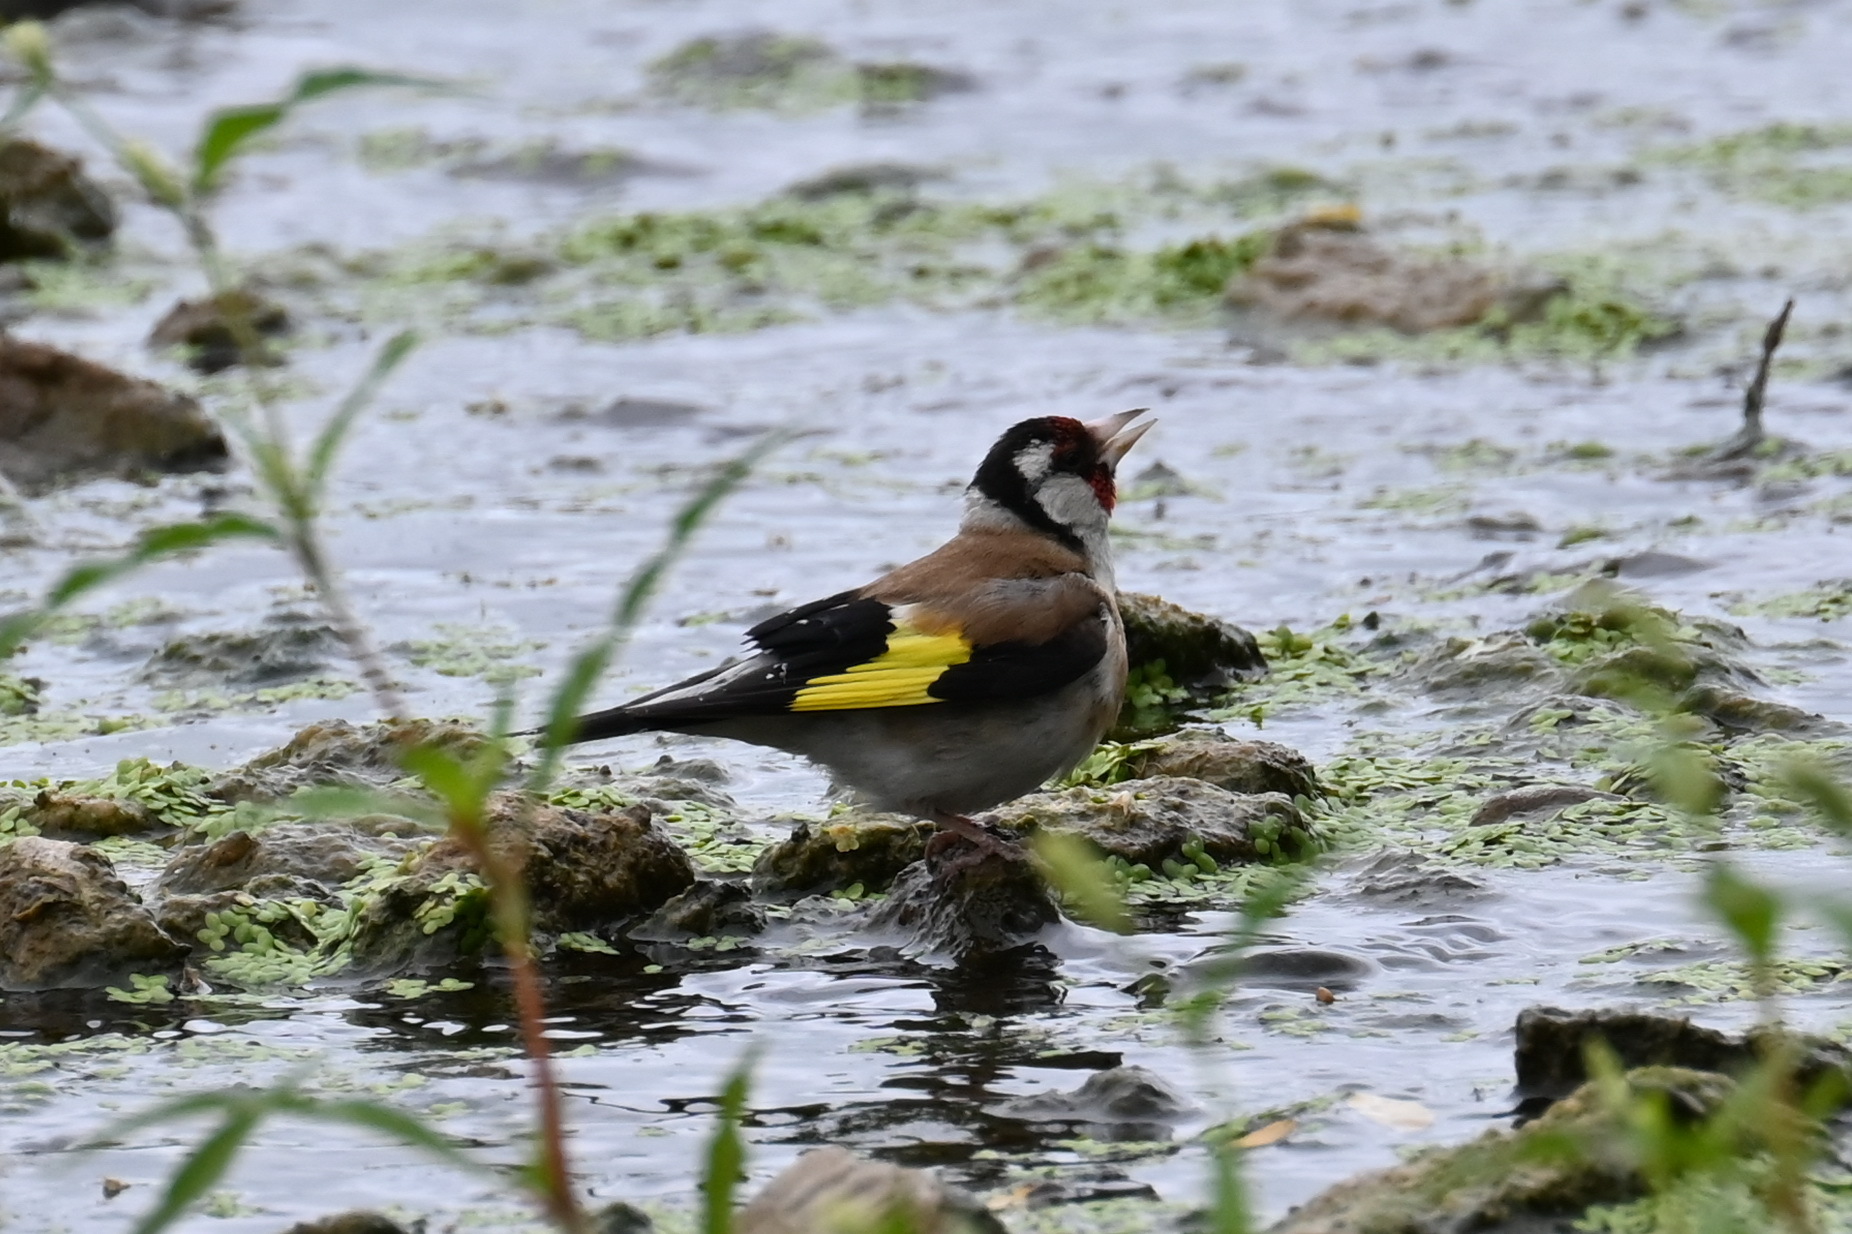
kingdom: Animalia
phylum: Chordata
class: Aves
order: Passeriformes
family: Fringillidae
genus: Carduelis
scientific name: Carduelis carduelis
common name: European goldfinch
